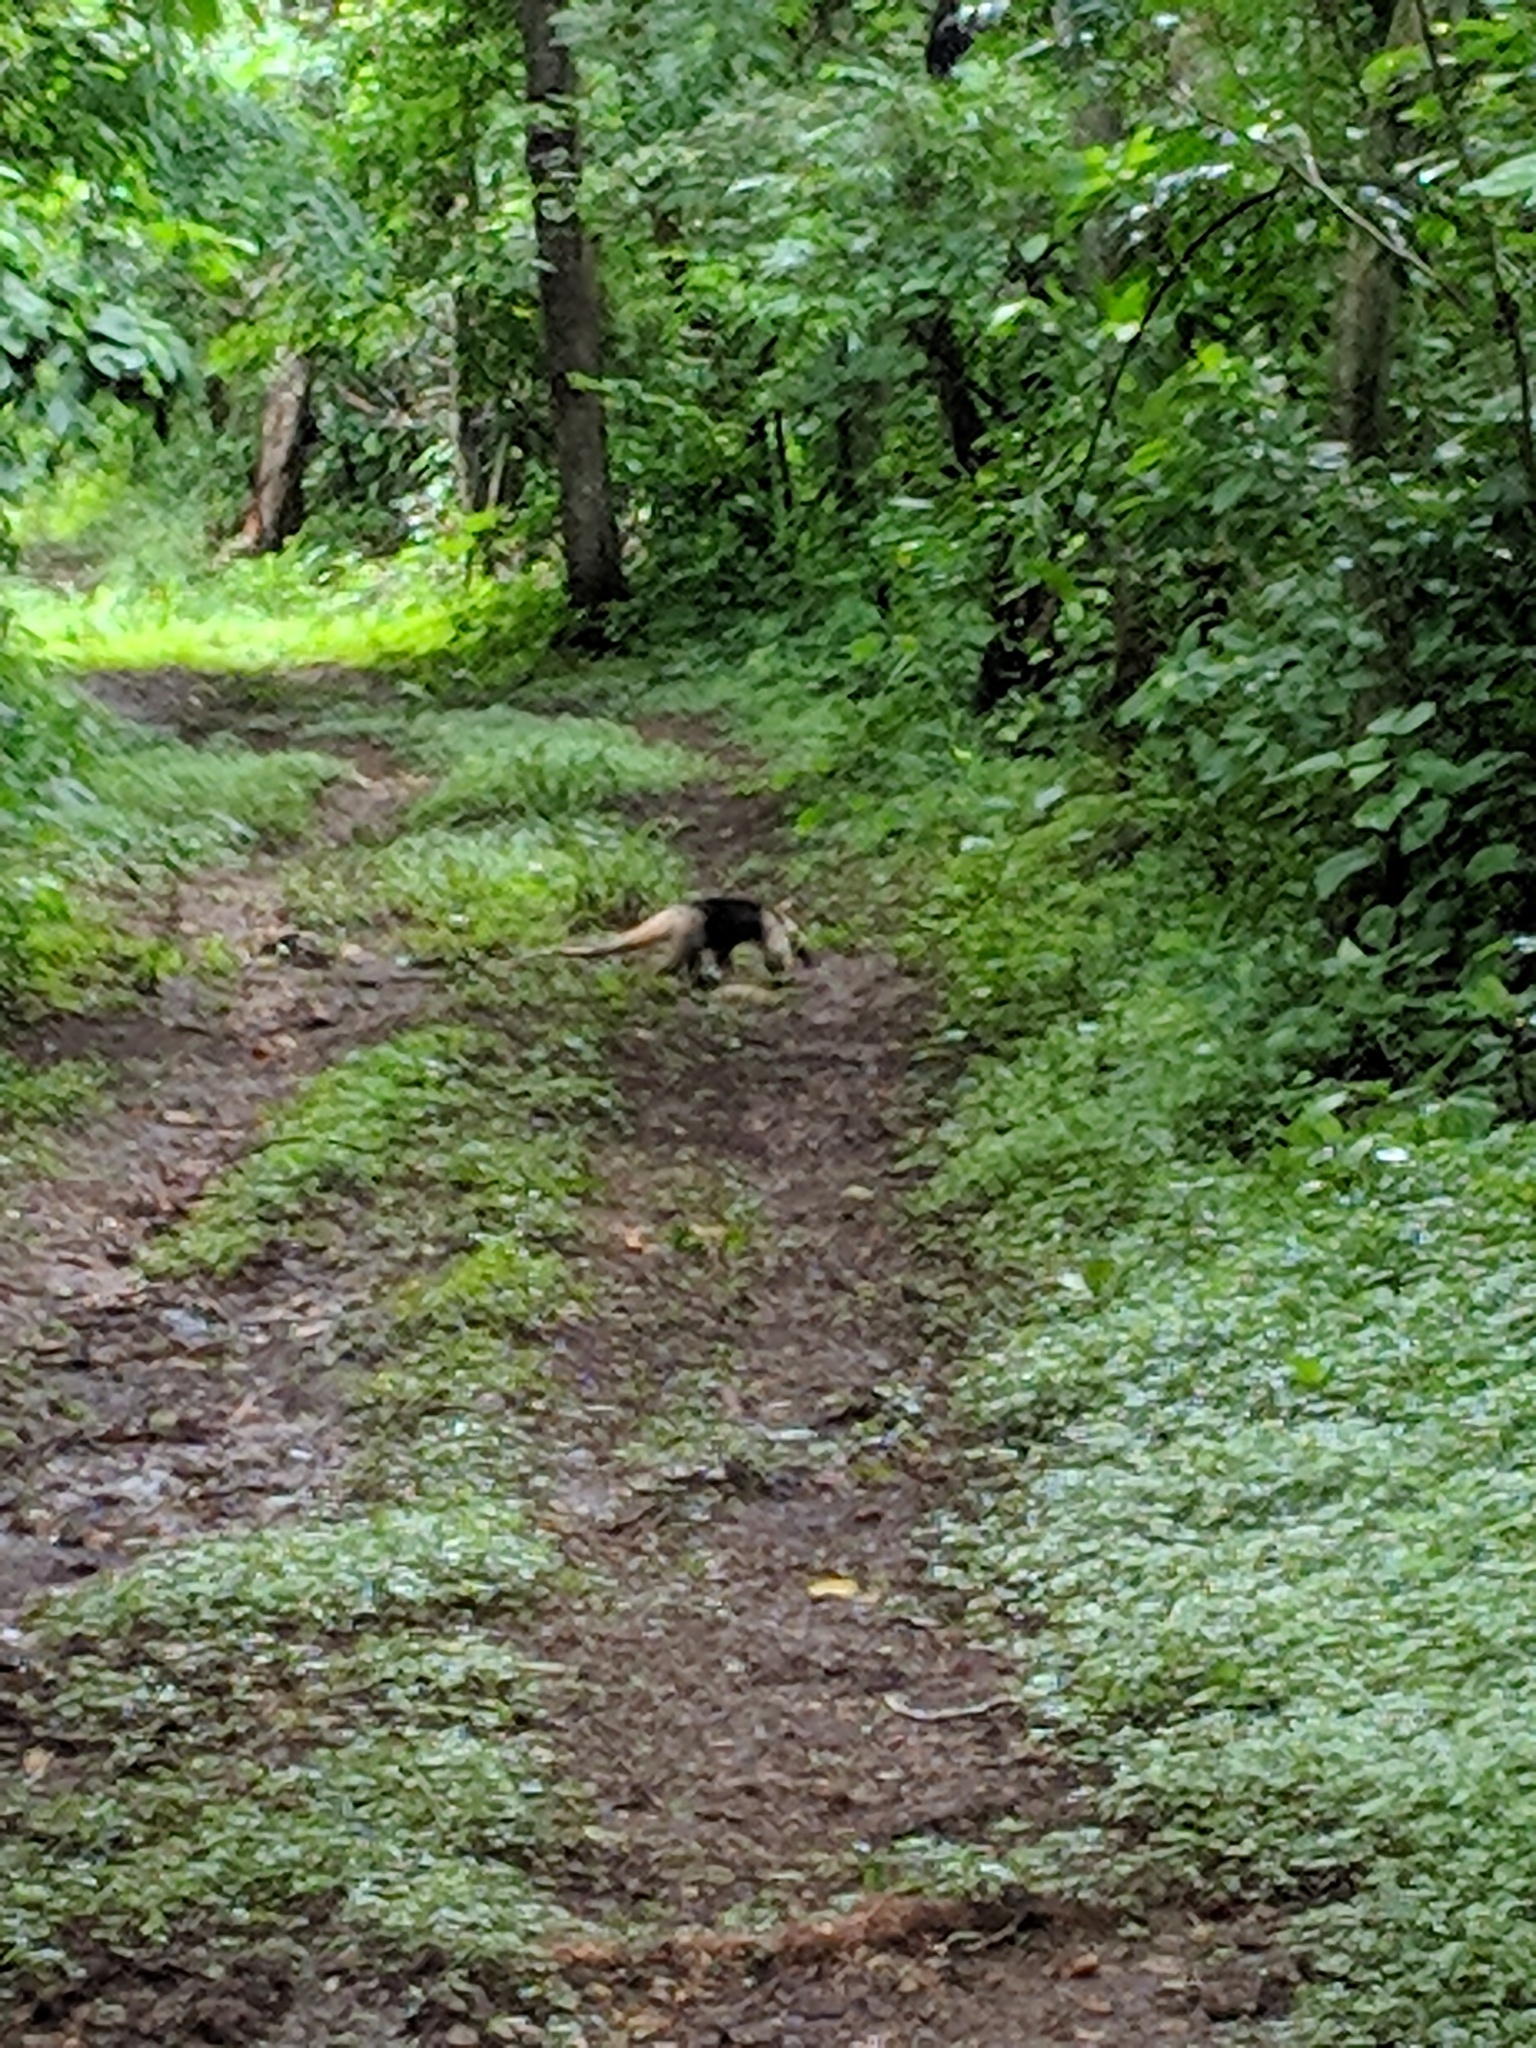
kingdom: Animalia
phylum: Chordata
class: Mammalia
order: Pilosa
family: Myrmecophagidae
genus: Tamandua
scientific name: Tamandua mexicana
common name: Northern tamandua
